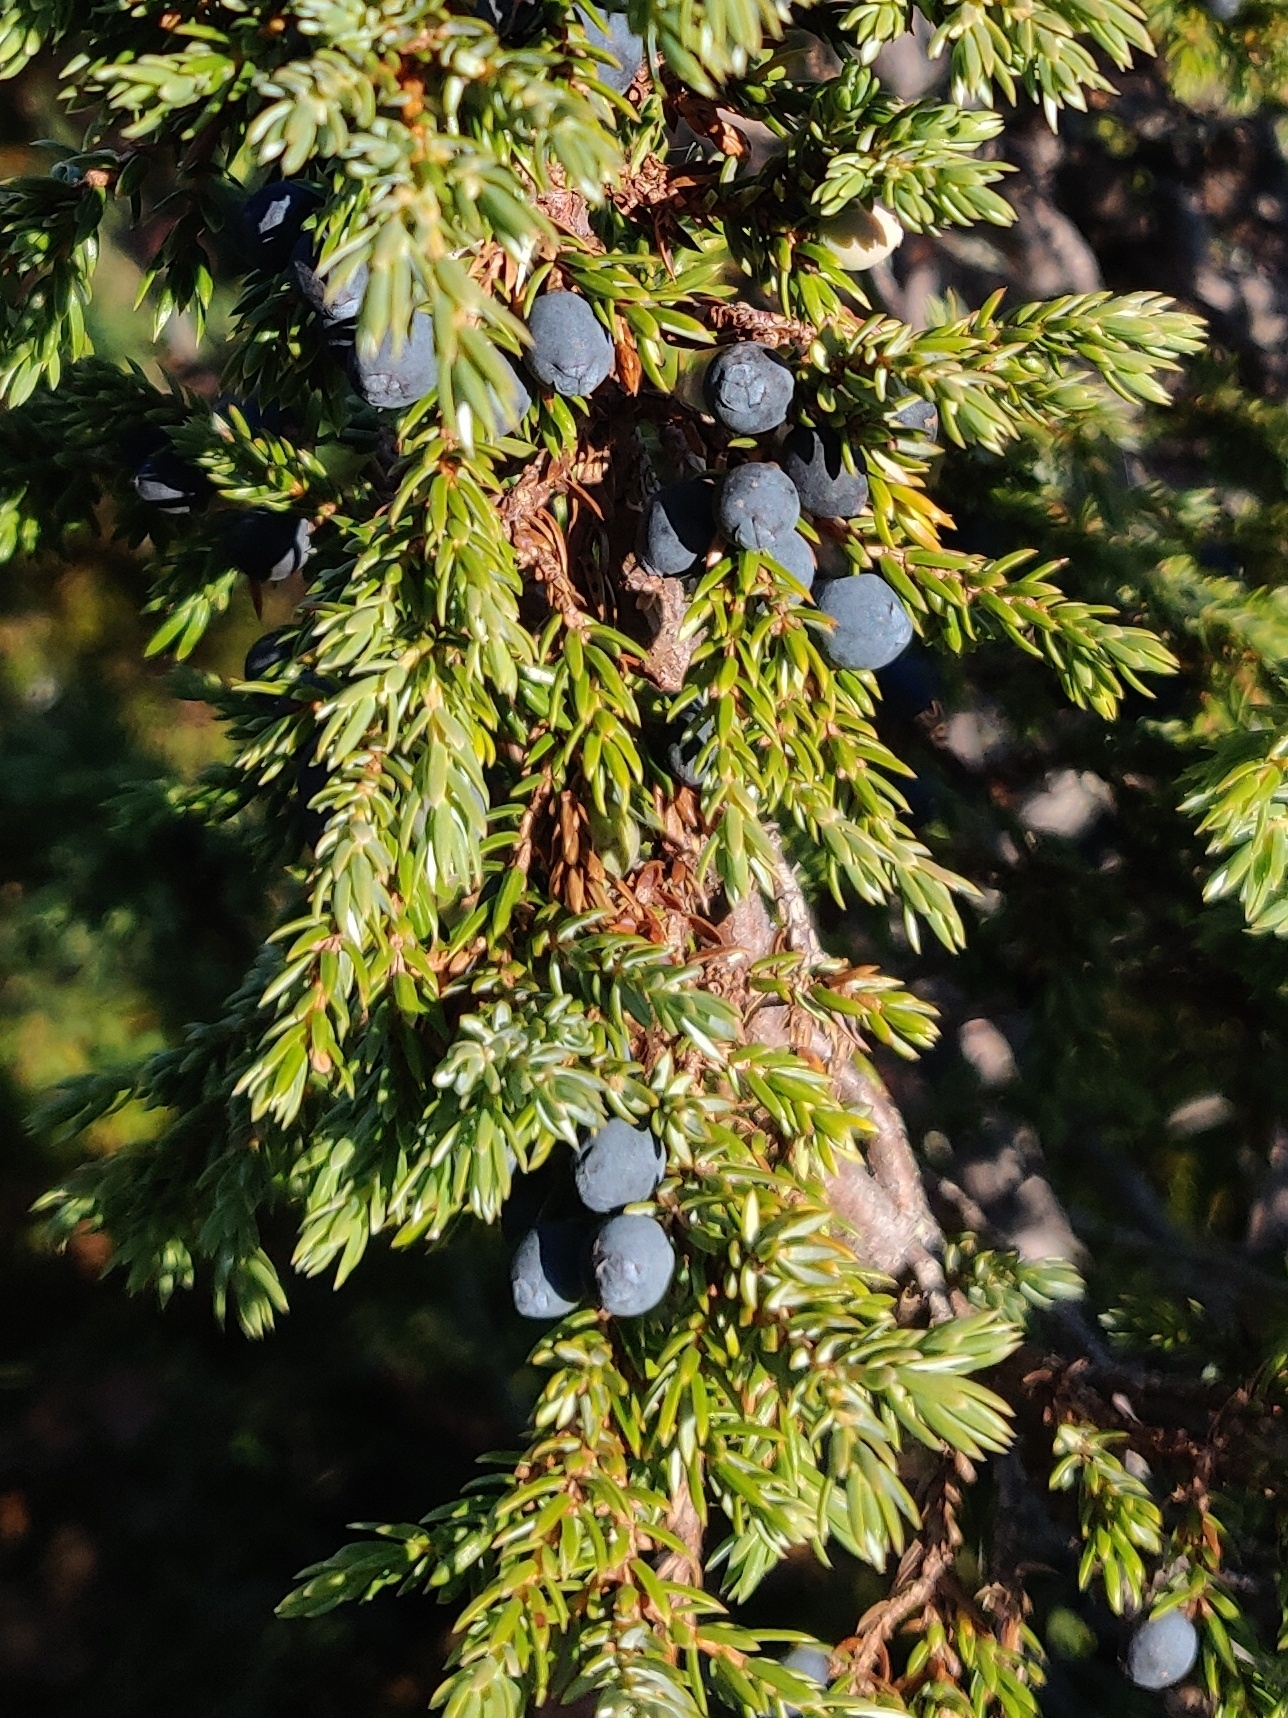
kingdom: Plantae
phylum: Tracheophyta
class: Pinopsida
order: Pinales
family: Cupressaceae
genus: Juniperus
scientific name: Juniperus communis
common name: Common juniper
